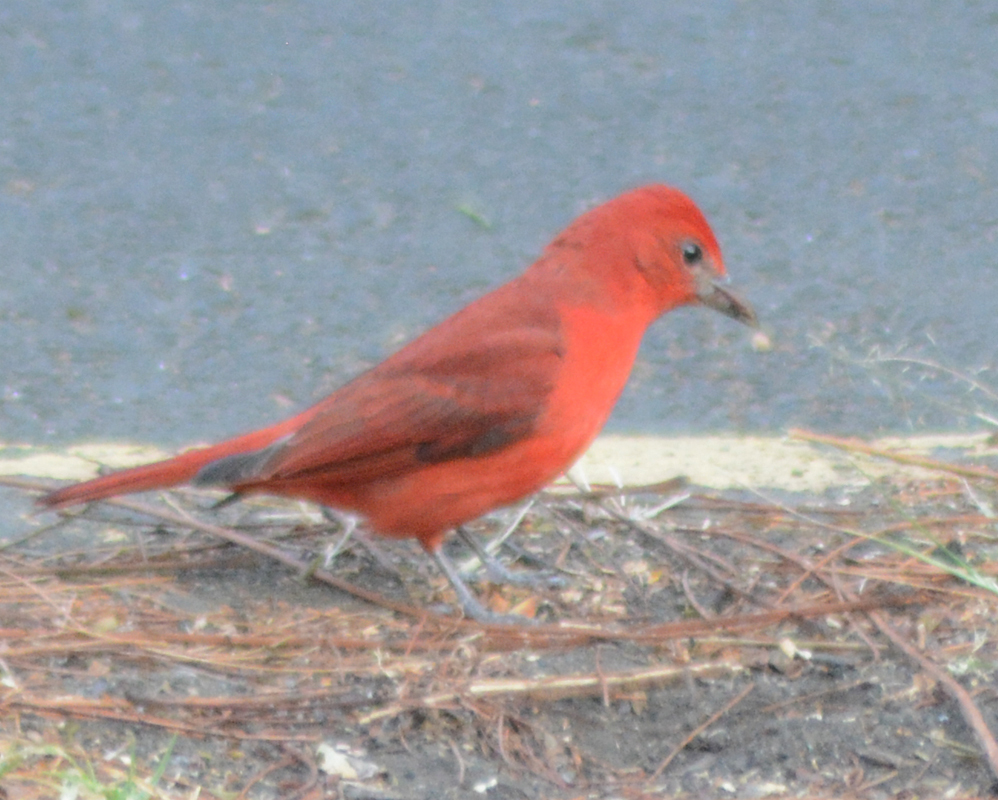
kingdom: Animalia
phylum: Chordata
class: Aves
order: Passeriformes
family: Cardinalidae
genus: Piranga
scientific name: Piranga flava
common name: Red tanager
